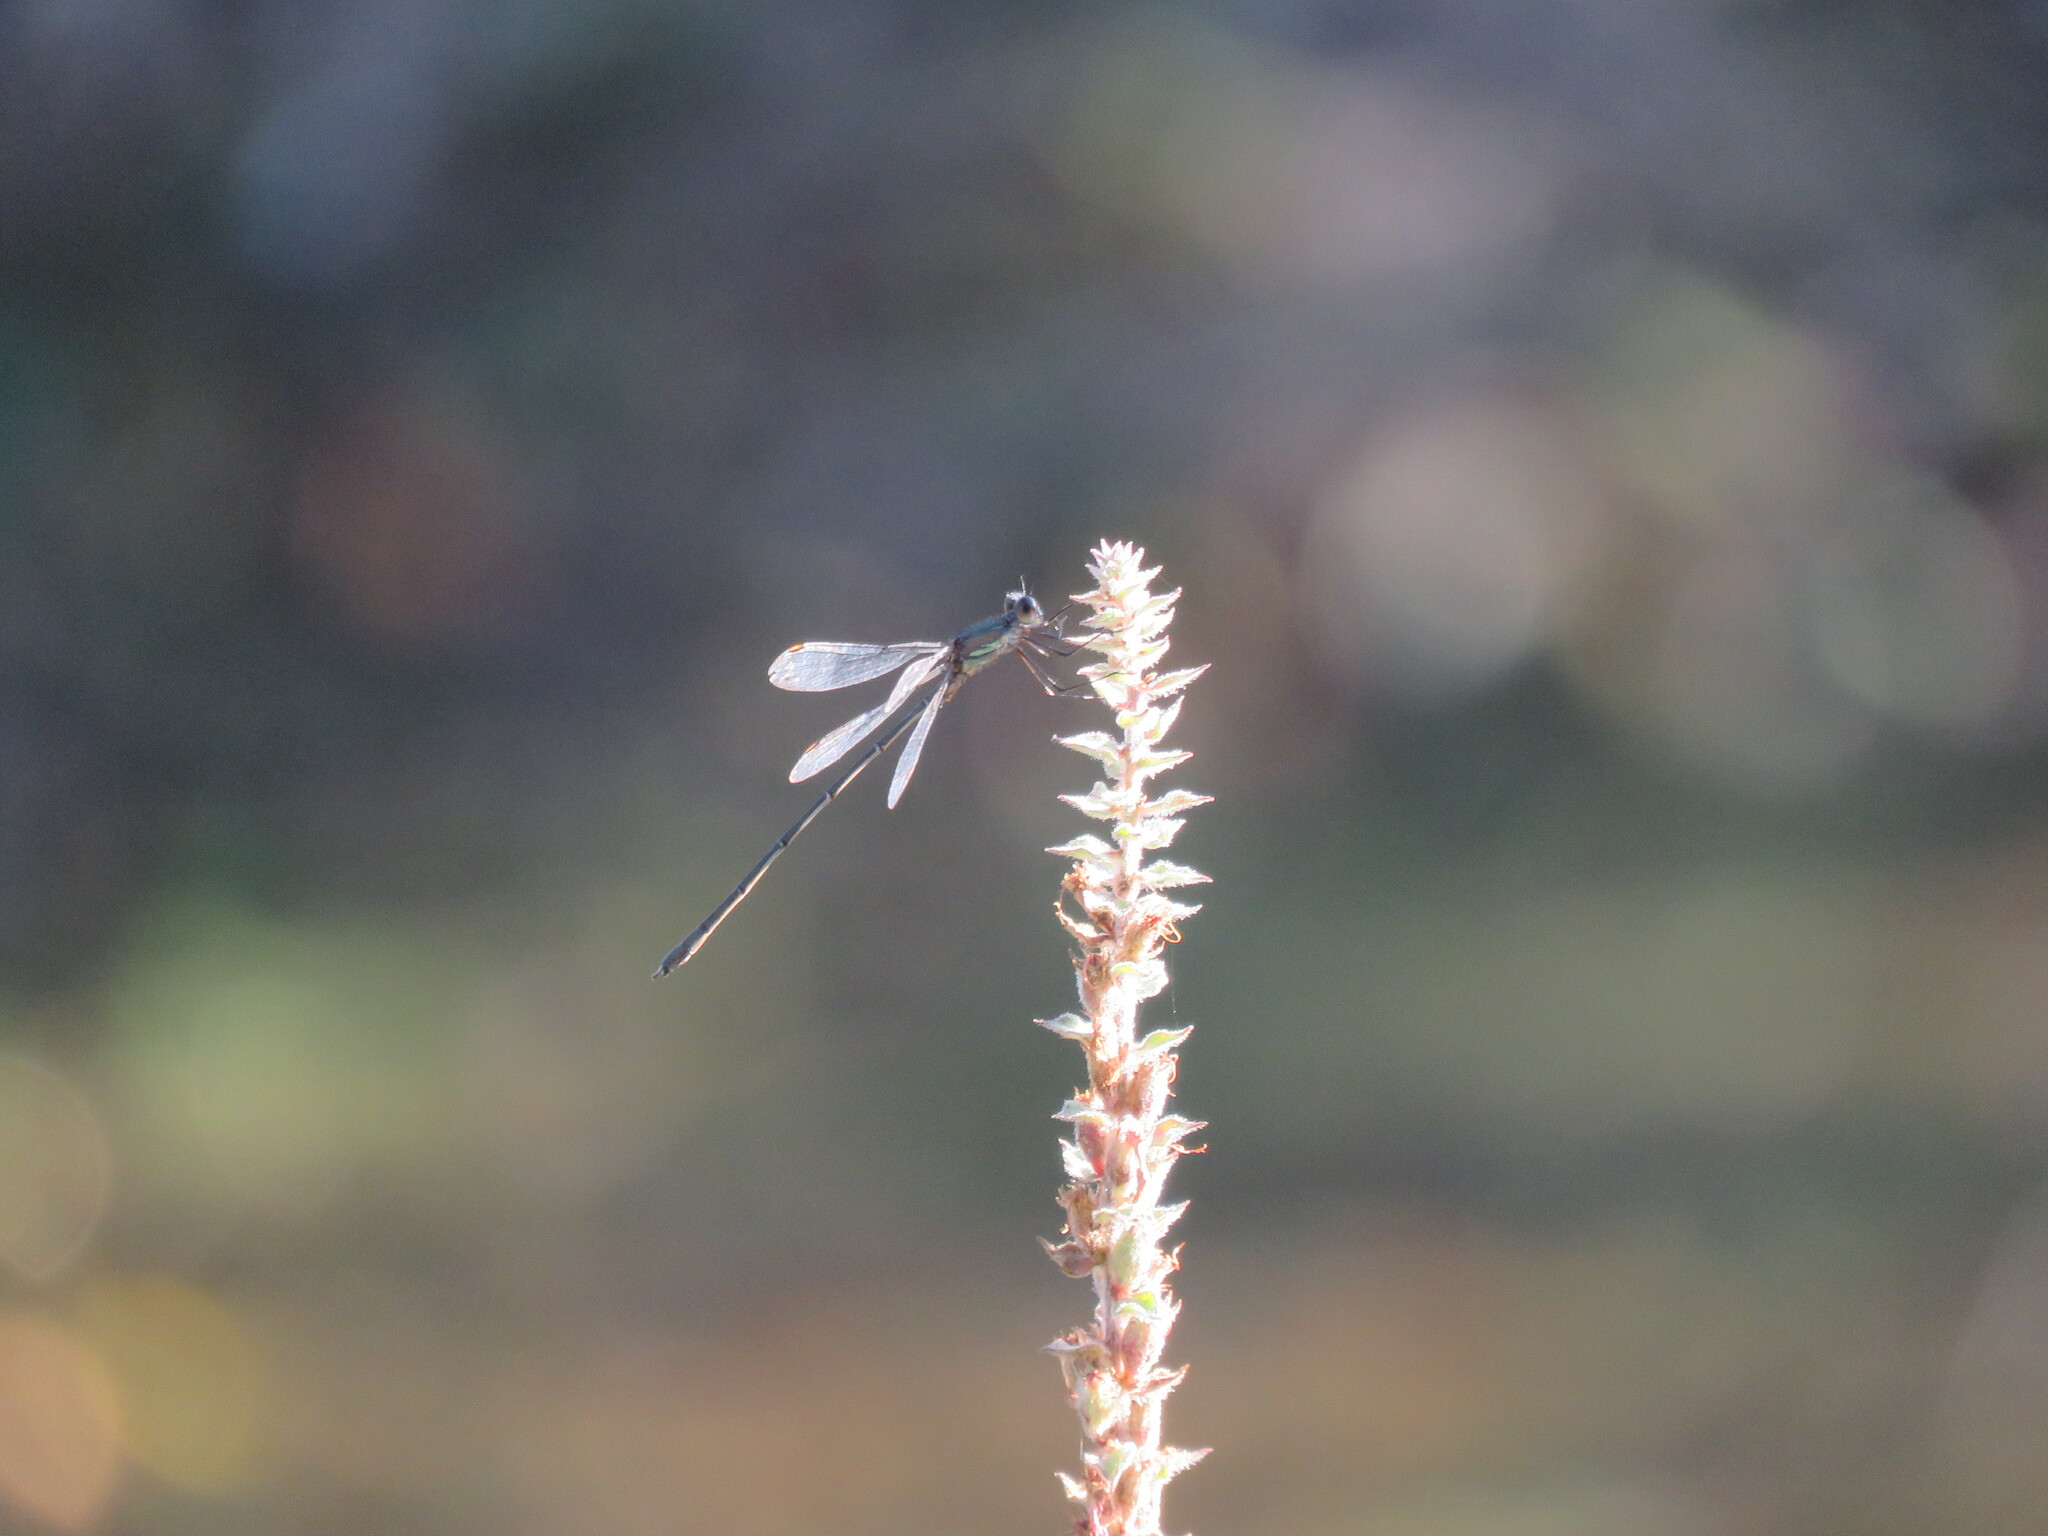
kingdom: Animalia
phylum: Arthropoda
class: Insecta
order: Odonata
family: Lestidae
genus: Chalcolestes
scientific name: Chalcolestes viridis
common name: Green emerald damselfly
